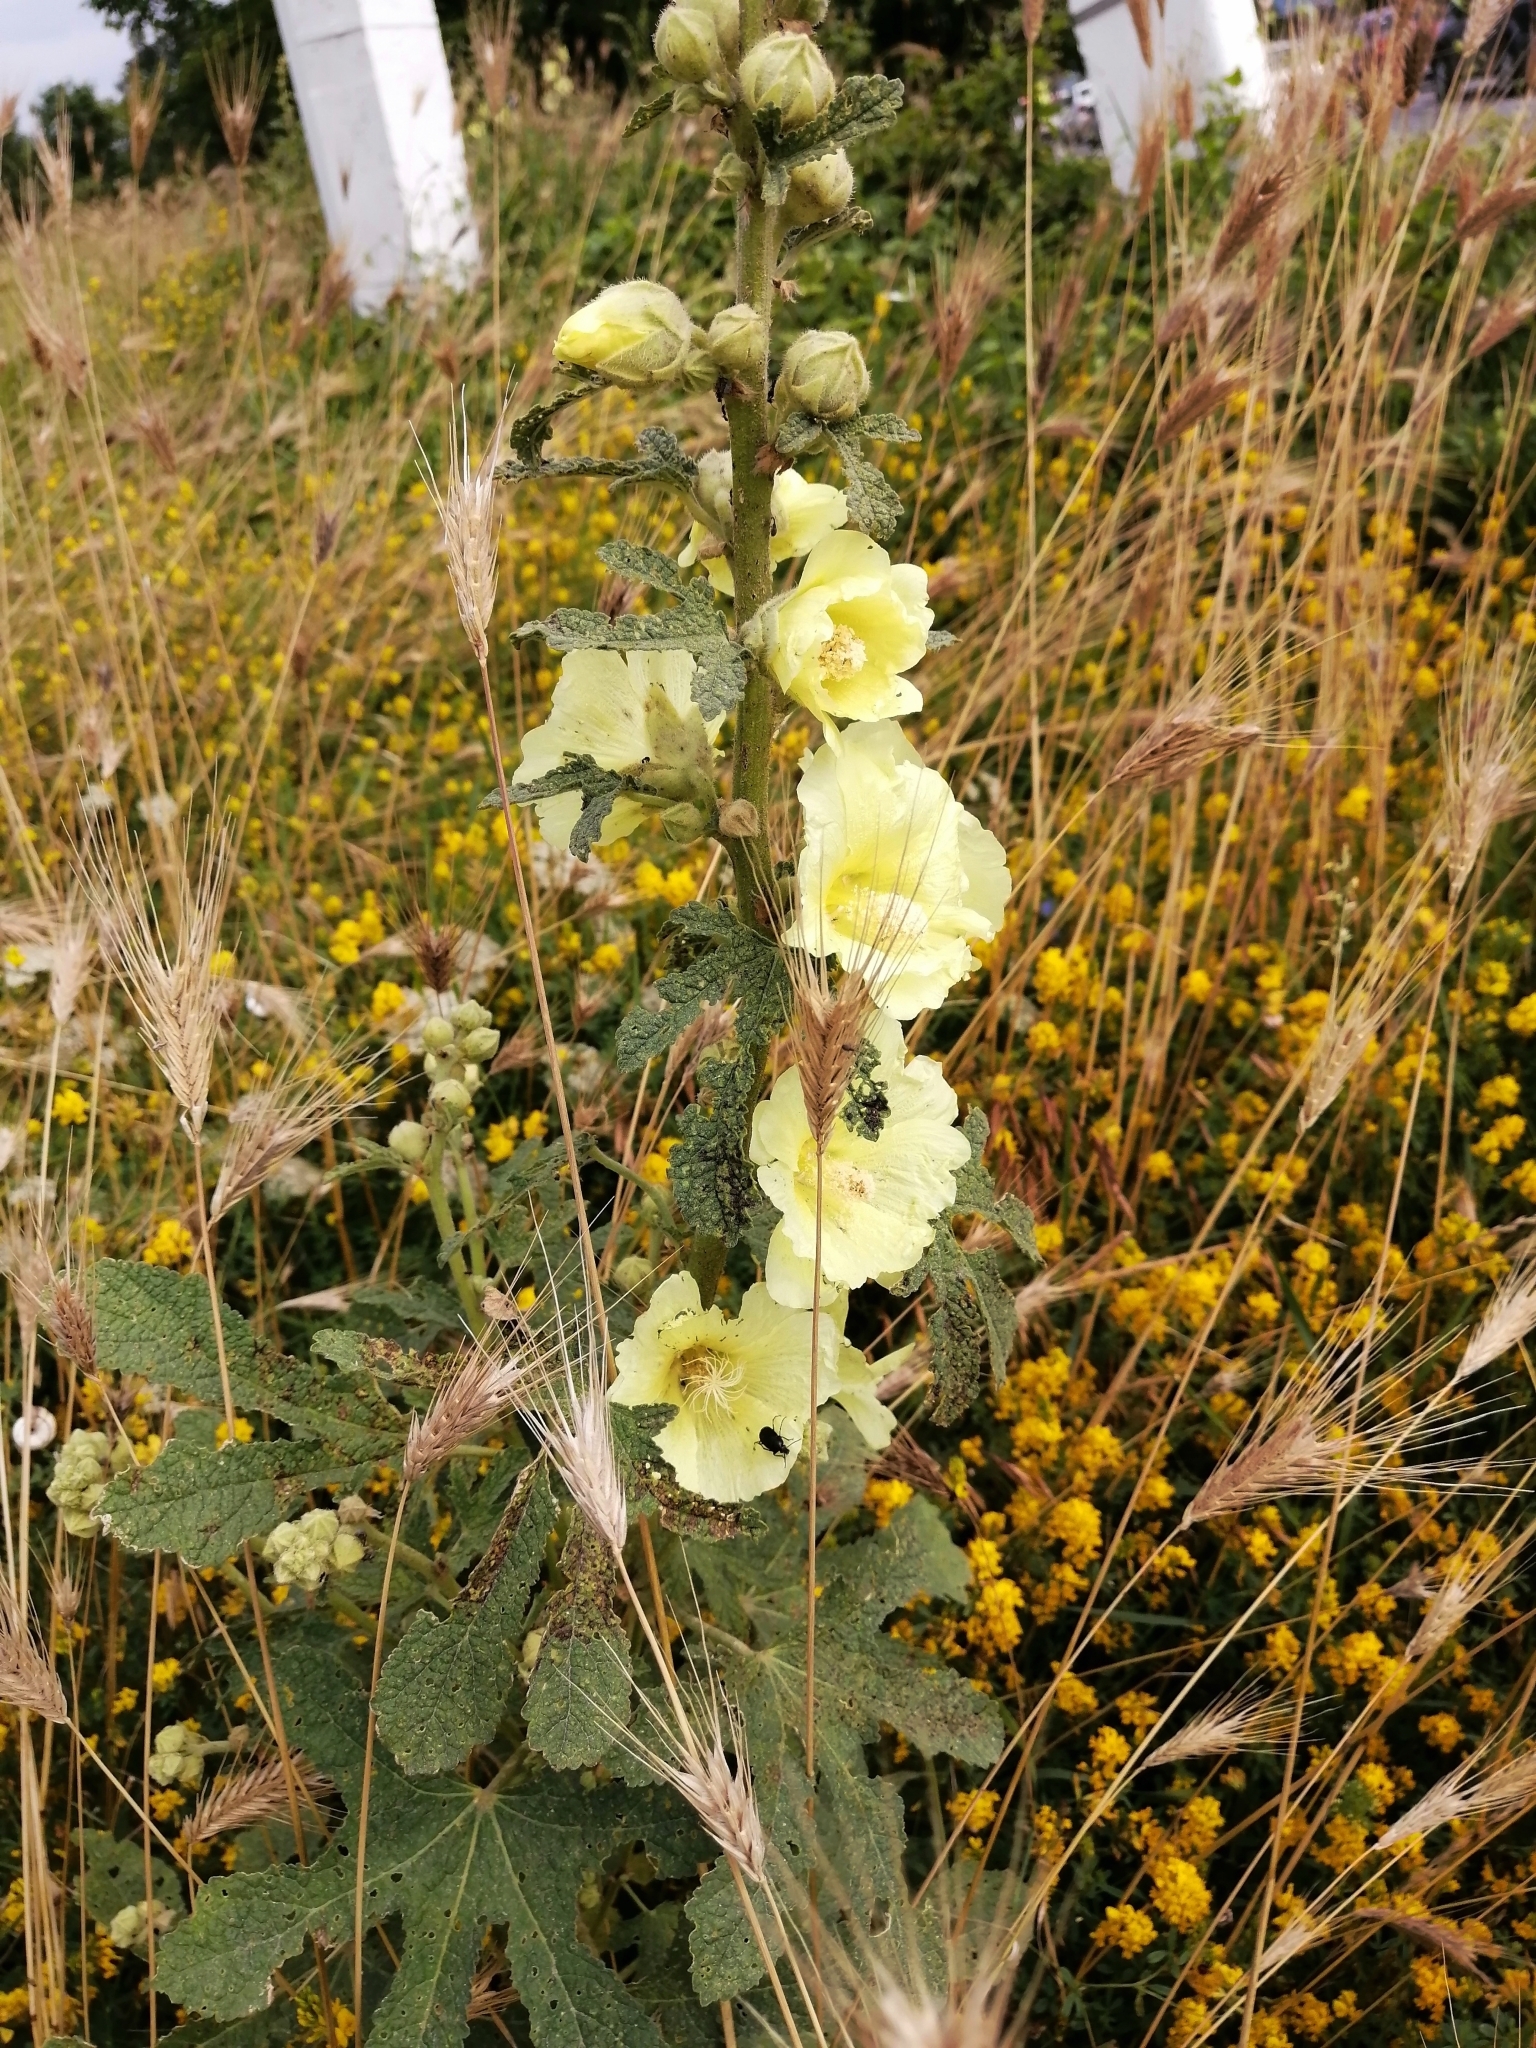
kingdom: Plantae
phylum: Tracheophyta
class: Magnoliopsida
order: Malvales
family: Malvaceae
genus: Alcea
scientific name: Alcea rugosa
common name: Russian hollyhock
